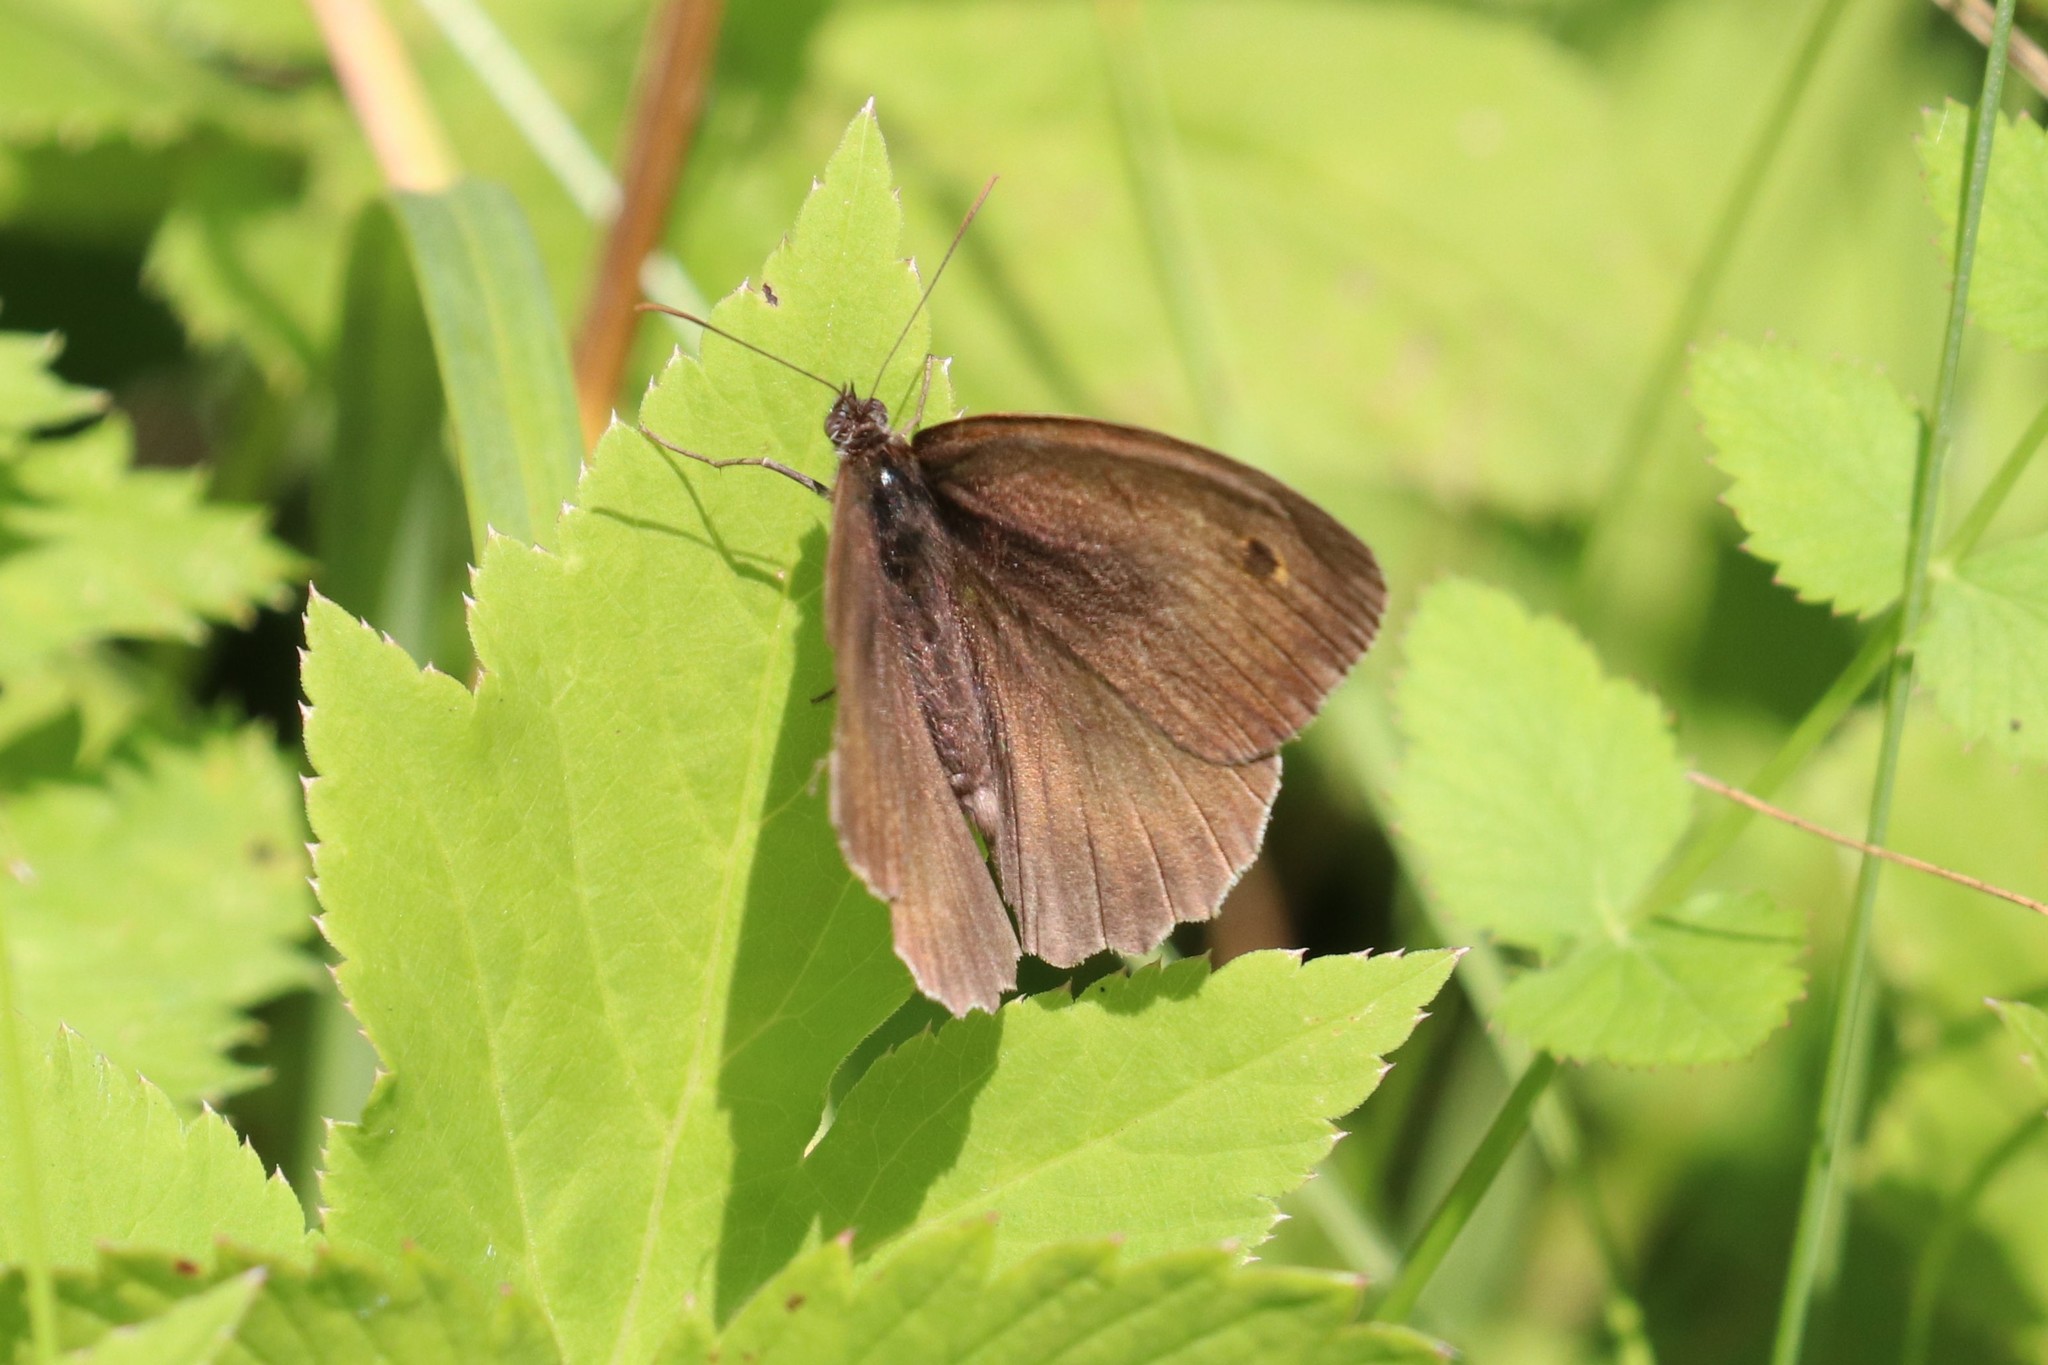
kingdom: Animalia
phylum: Arthropoda
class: Insecta
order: Lepidoptera
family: Nymphalidae
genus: Maniola
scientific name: Maniola jurtina
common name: Meadow brown
